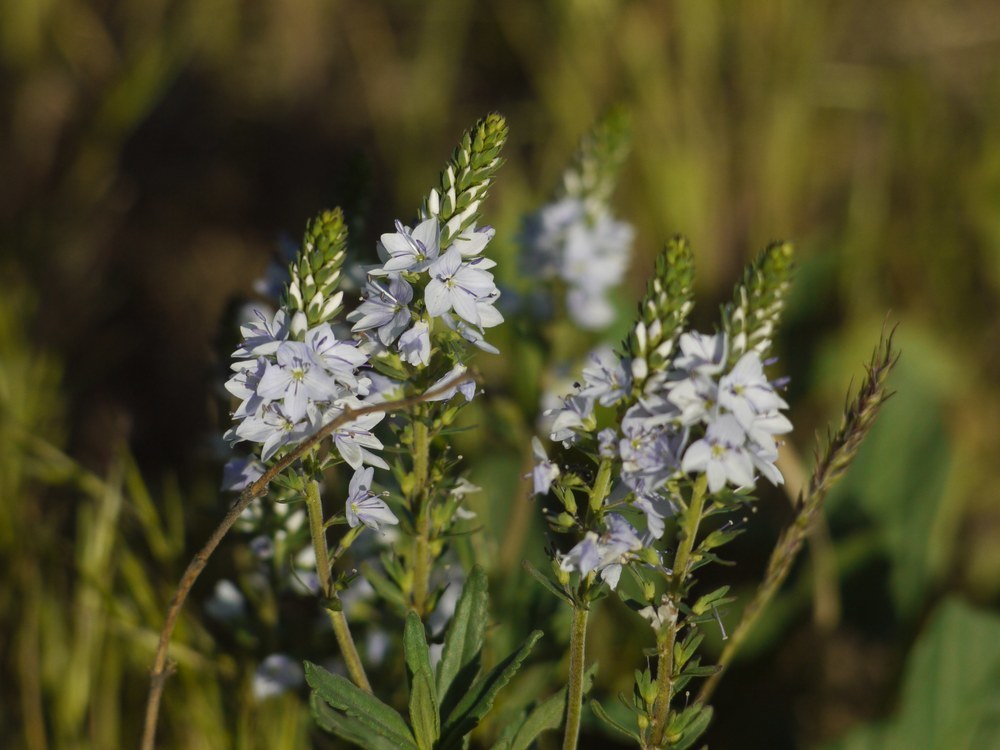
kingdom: Plantae
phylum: Tracheophyta
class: Magnoliopsida
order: Lamiales
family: Plantaginaceae
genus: Veronica
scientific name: Veronica prostrata
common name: Prostrate speedwell
